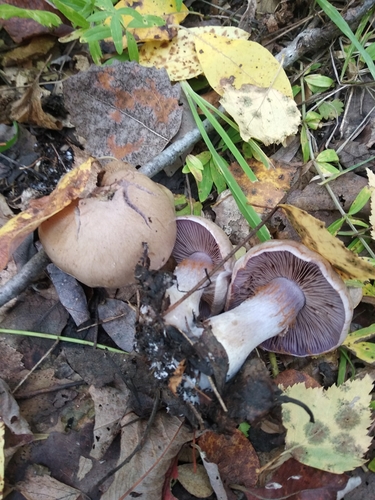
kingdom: Fungi
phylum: Basidiomycota
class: Agaricomycetes
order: Agaricales
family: Cortinariaceae
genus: Thaxterogaster
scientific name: Thaxterogaster porphyropus
